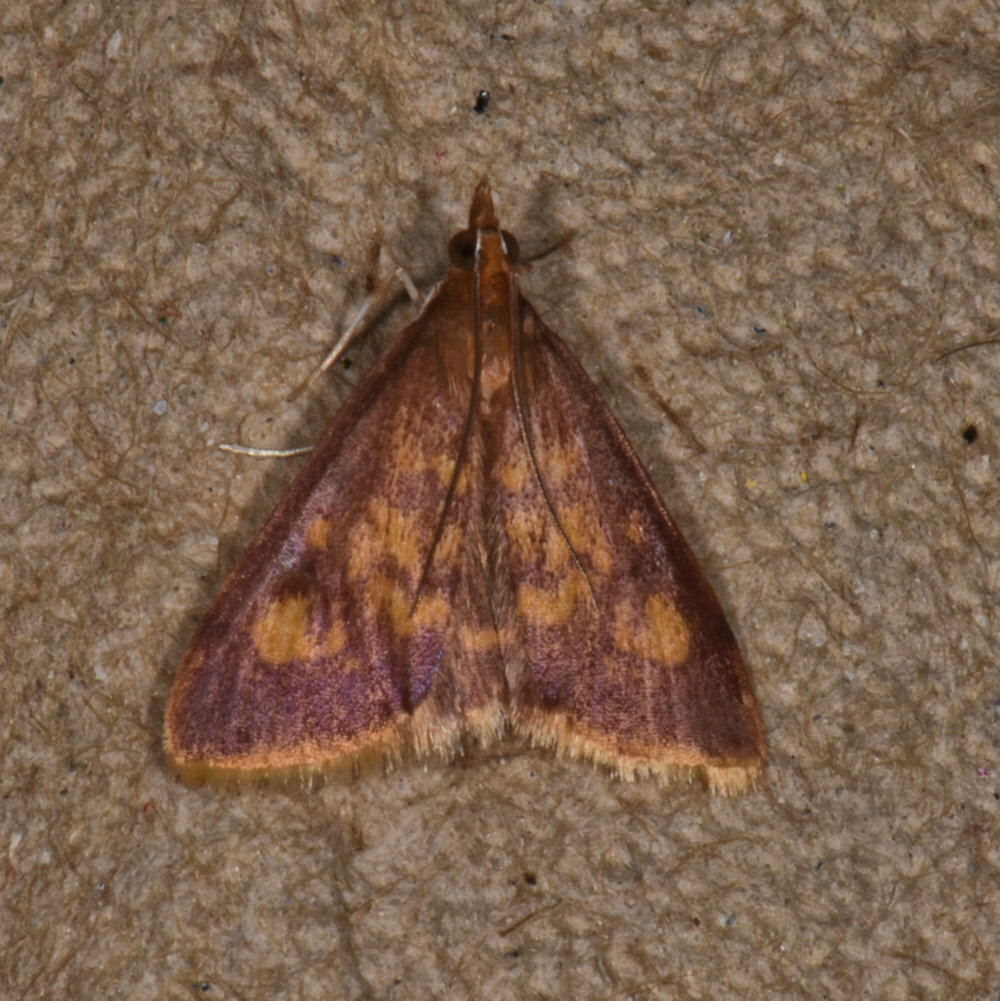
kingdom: Animalia
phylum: Arthropoda
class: Insecta
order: Lepidoptera
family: Crambidae
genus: Pyrausta
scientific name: Pyrausta acrionalis
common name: Mint-loving pyrausta moth
